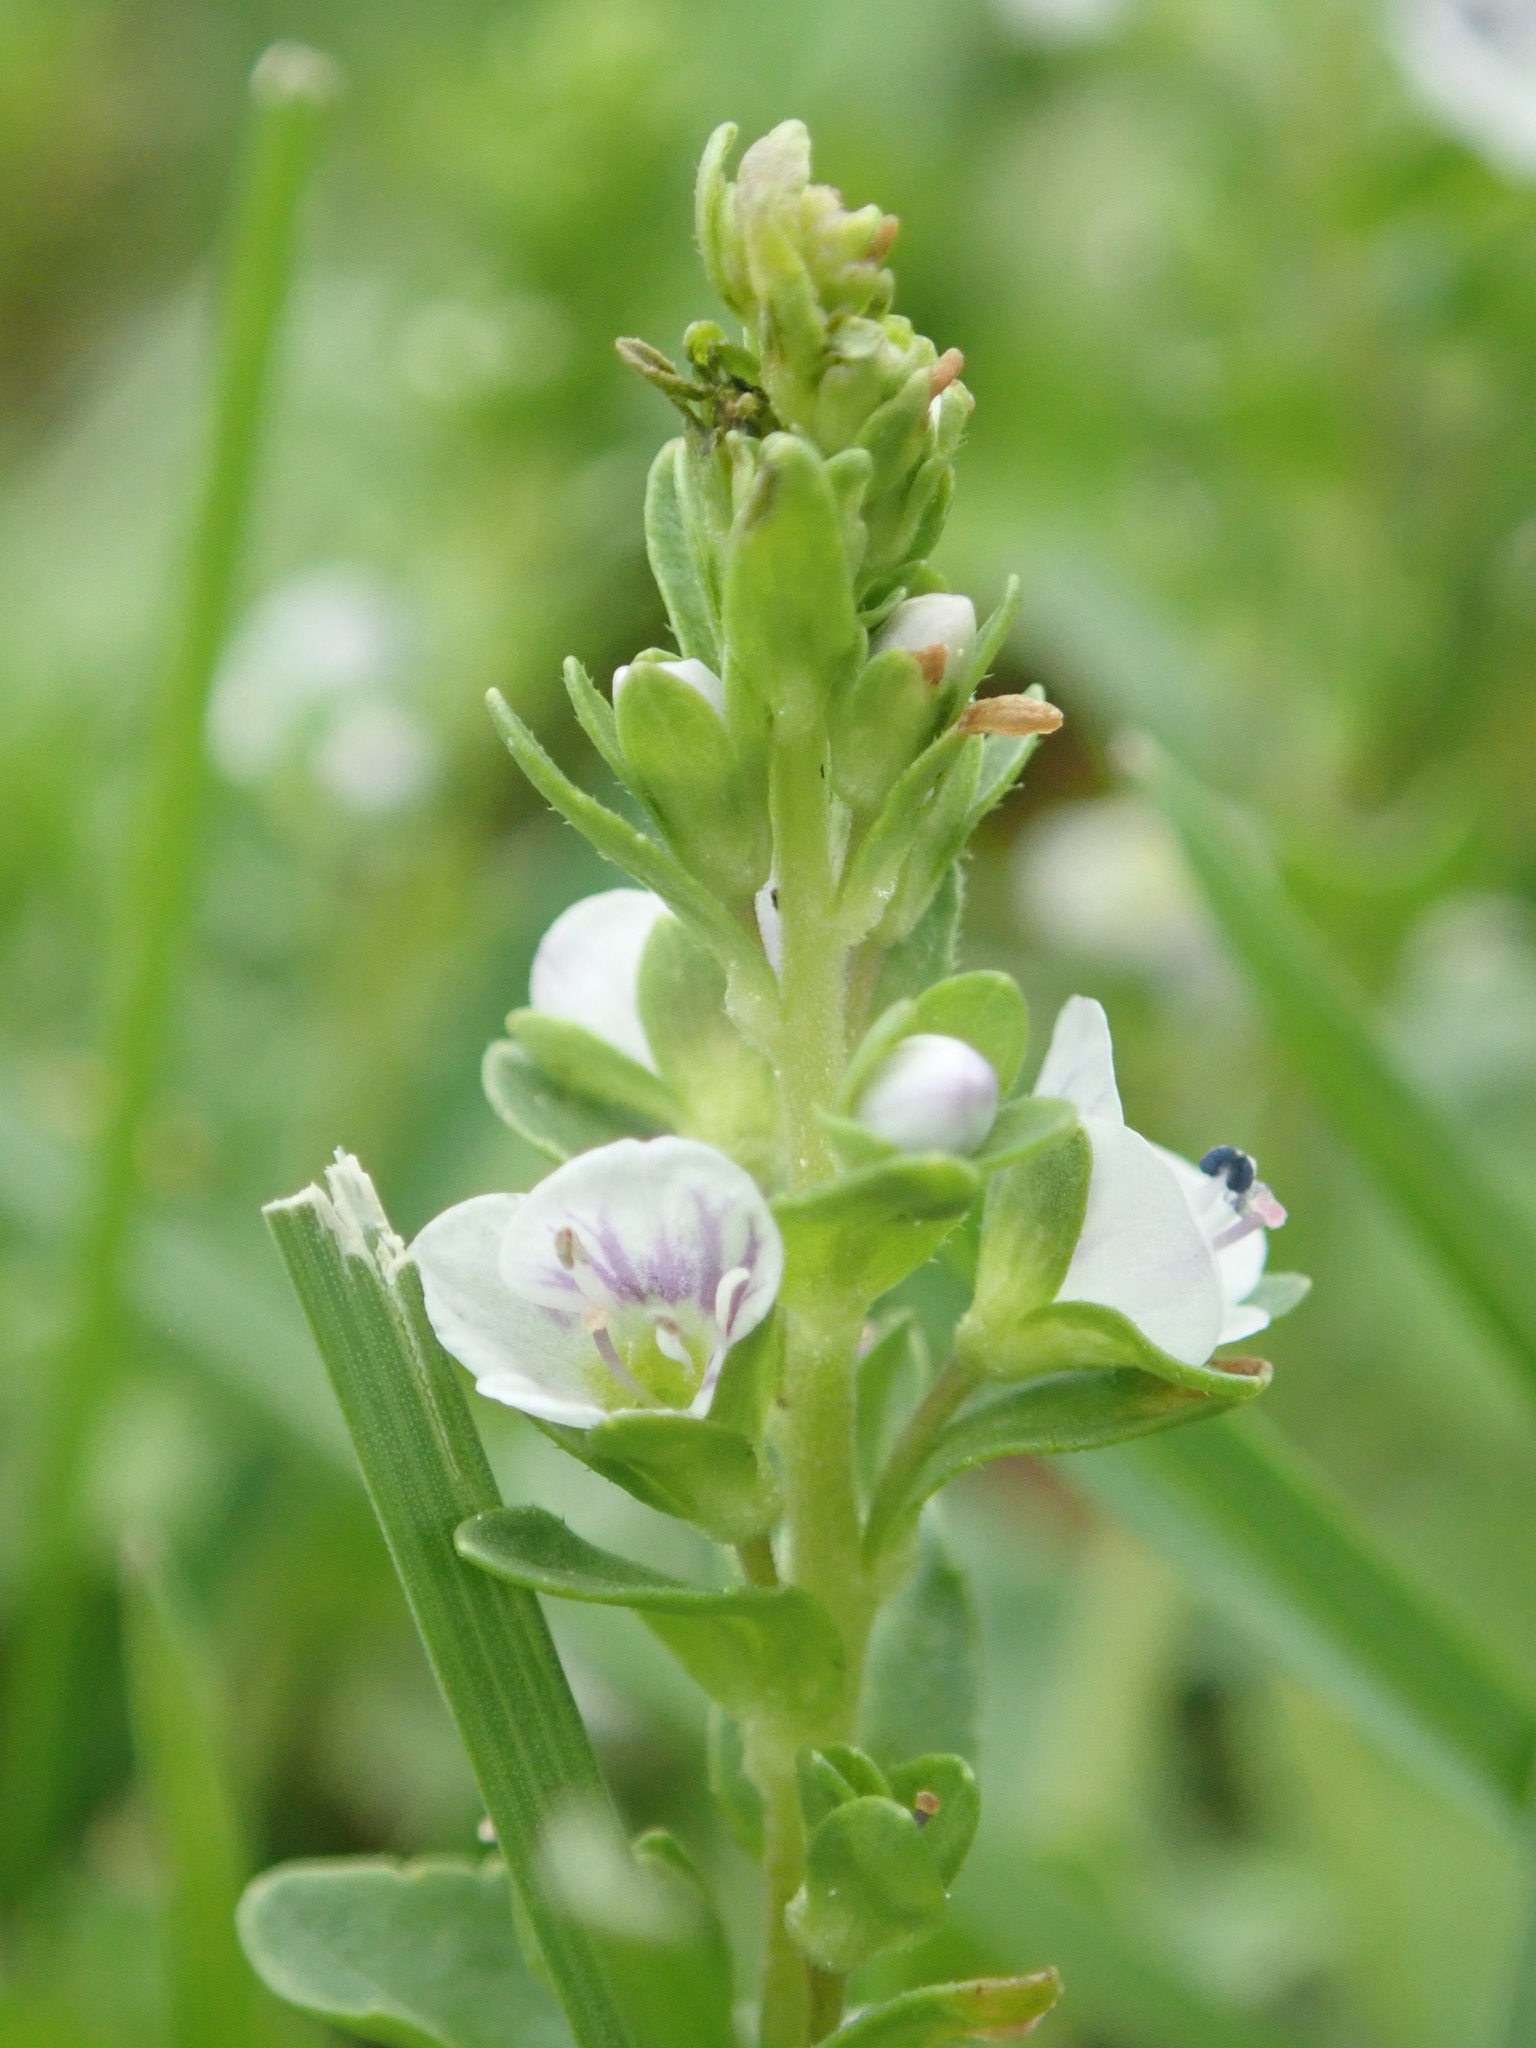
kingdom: Plantae
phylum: Tracheophyta
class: Magnoliopsida
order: Lamiales
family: Plantaginaceae
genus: Veronica
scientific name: Veronica serpyllifolia
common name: Thyme-leaved speedwell
